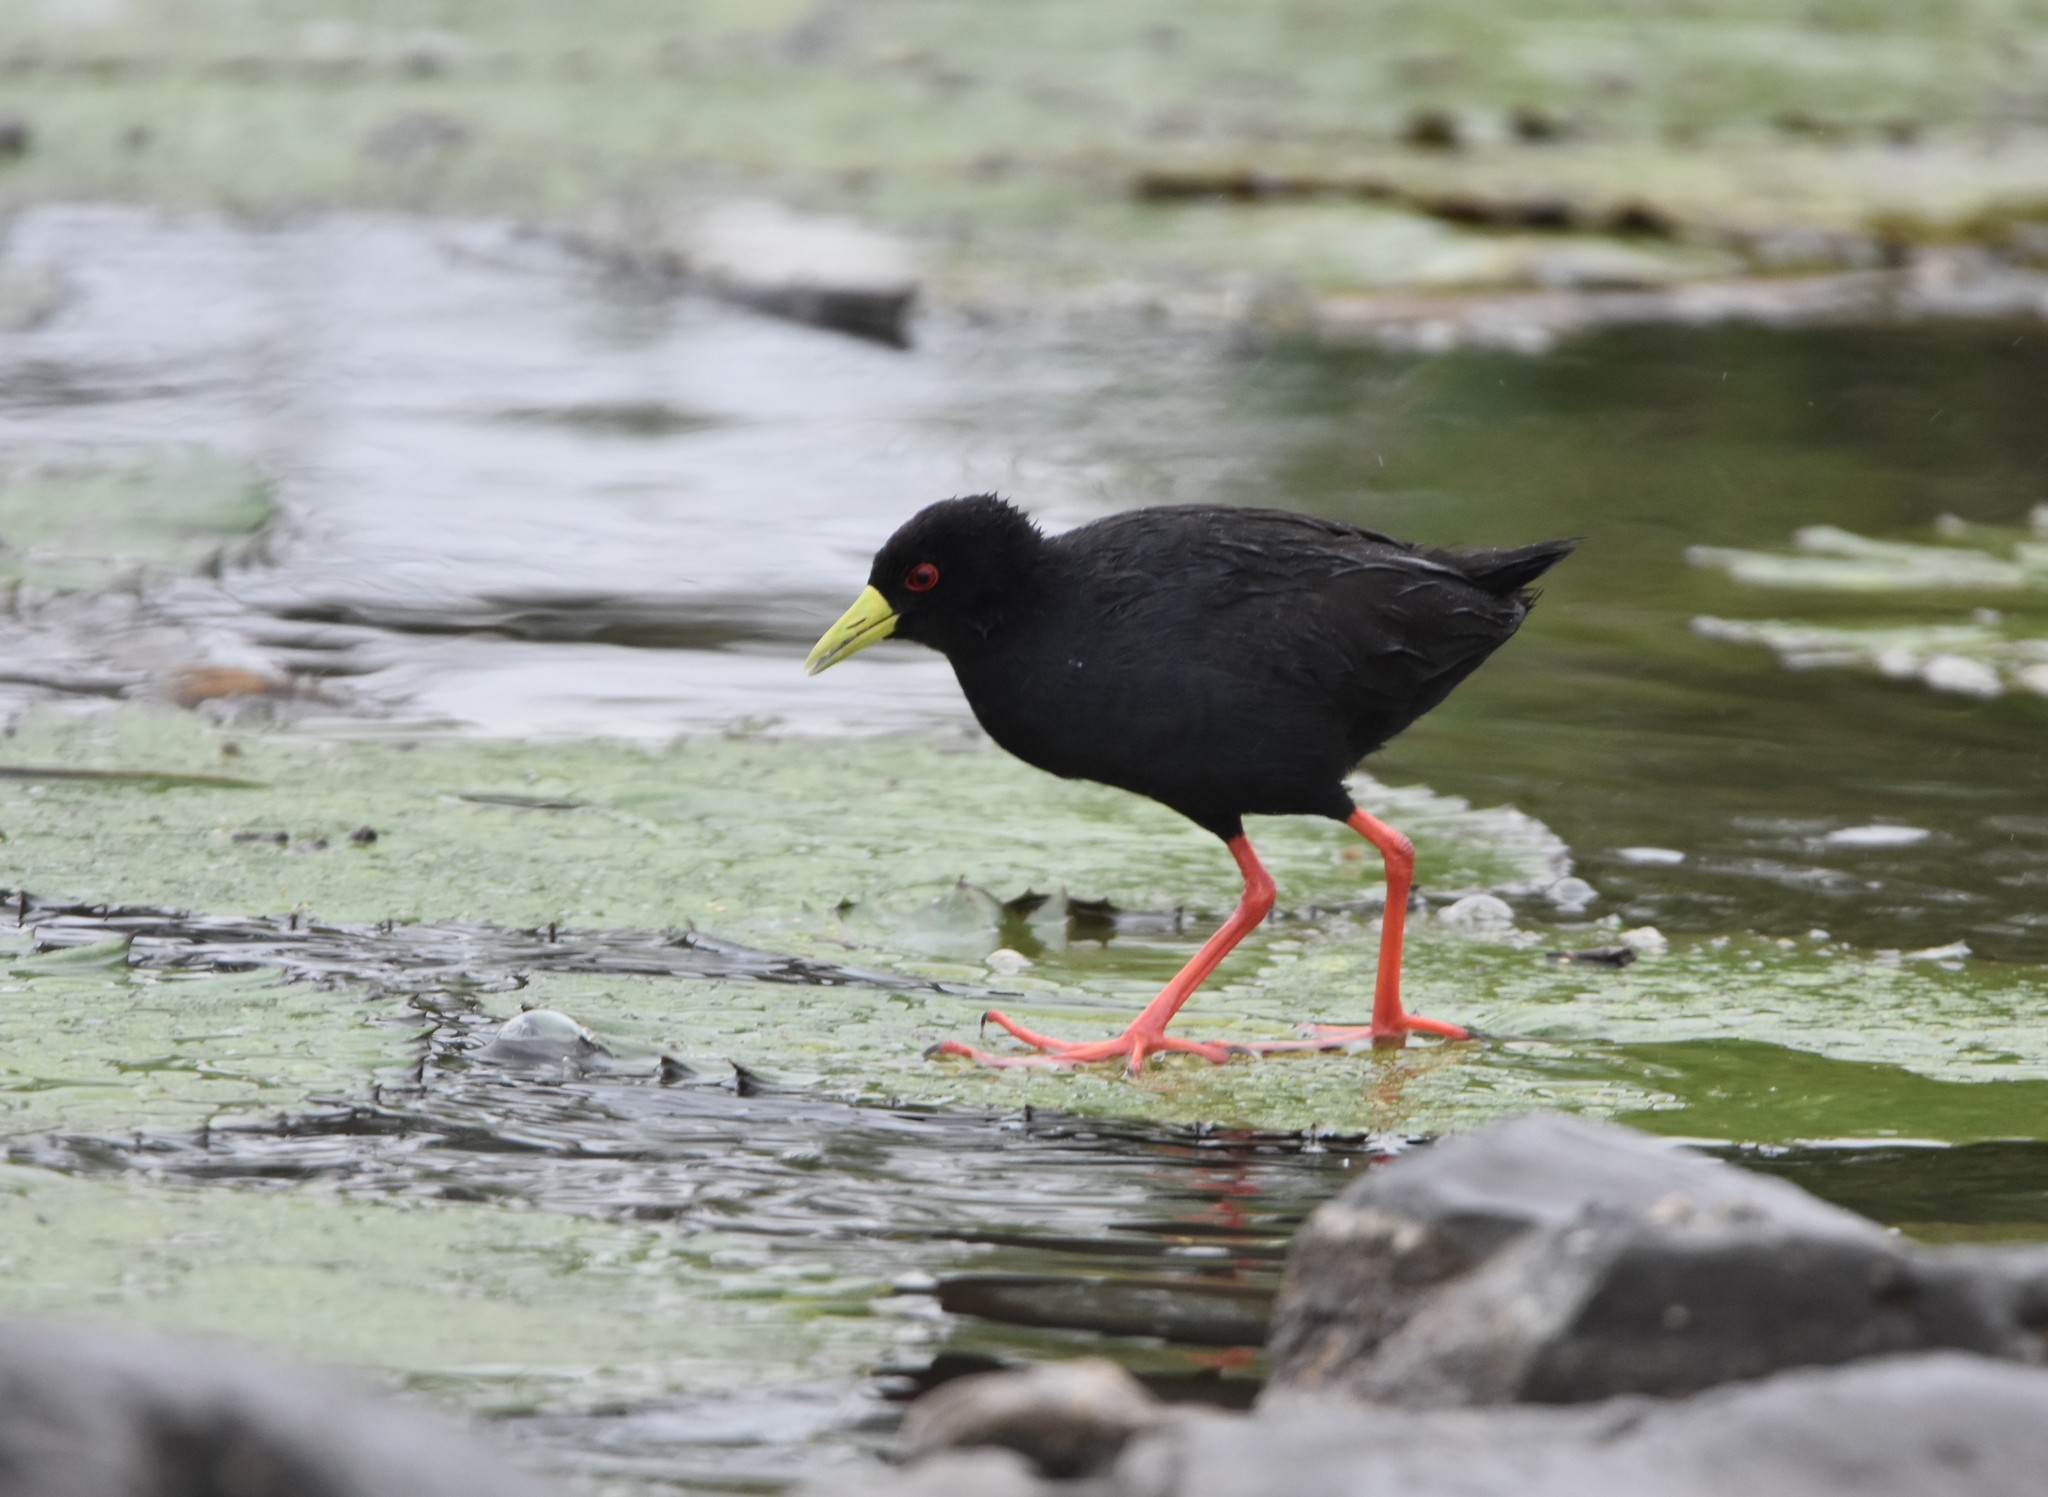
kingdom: Animalia
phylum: Chordata
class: Aves
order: Gruiformes
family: Rallidae
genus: Amaurornis
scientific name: Amaurornis flavirostra
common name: Black crake
